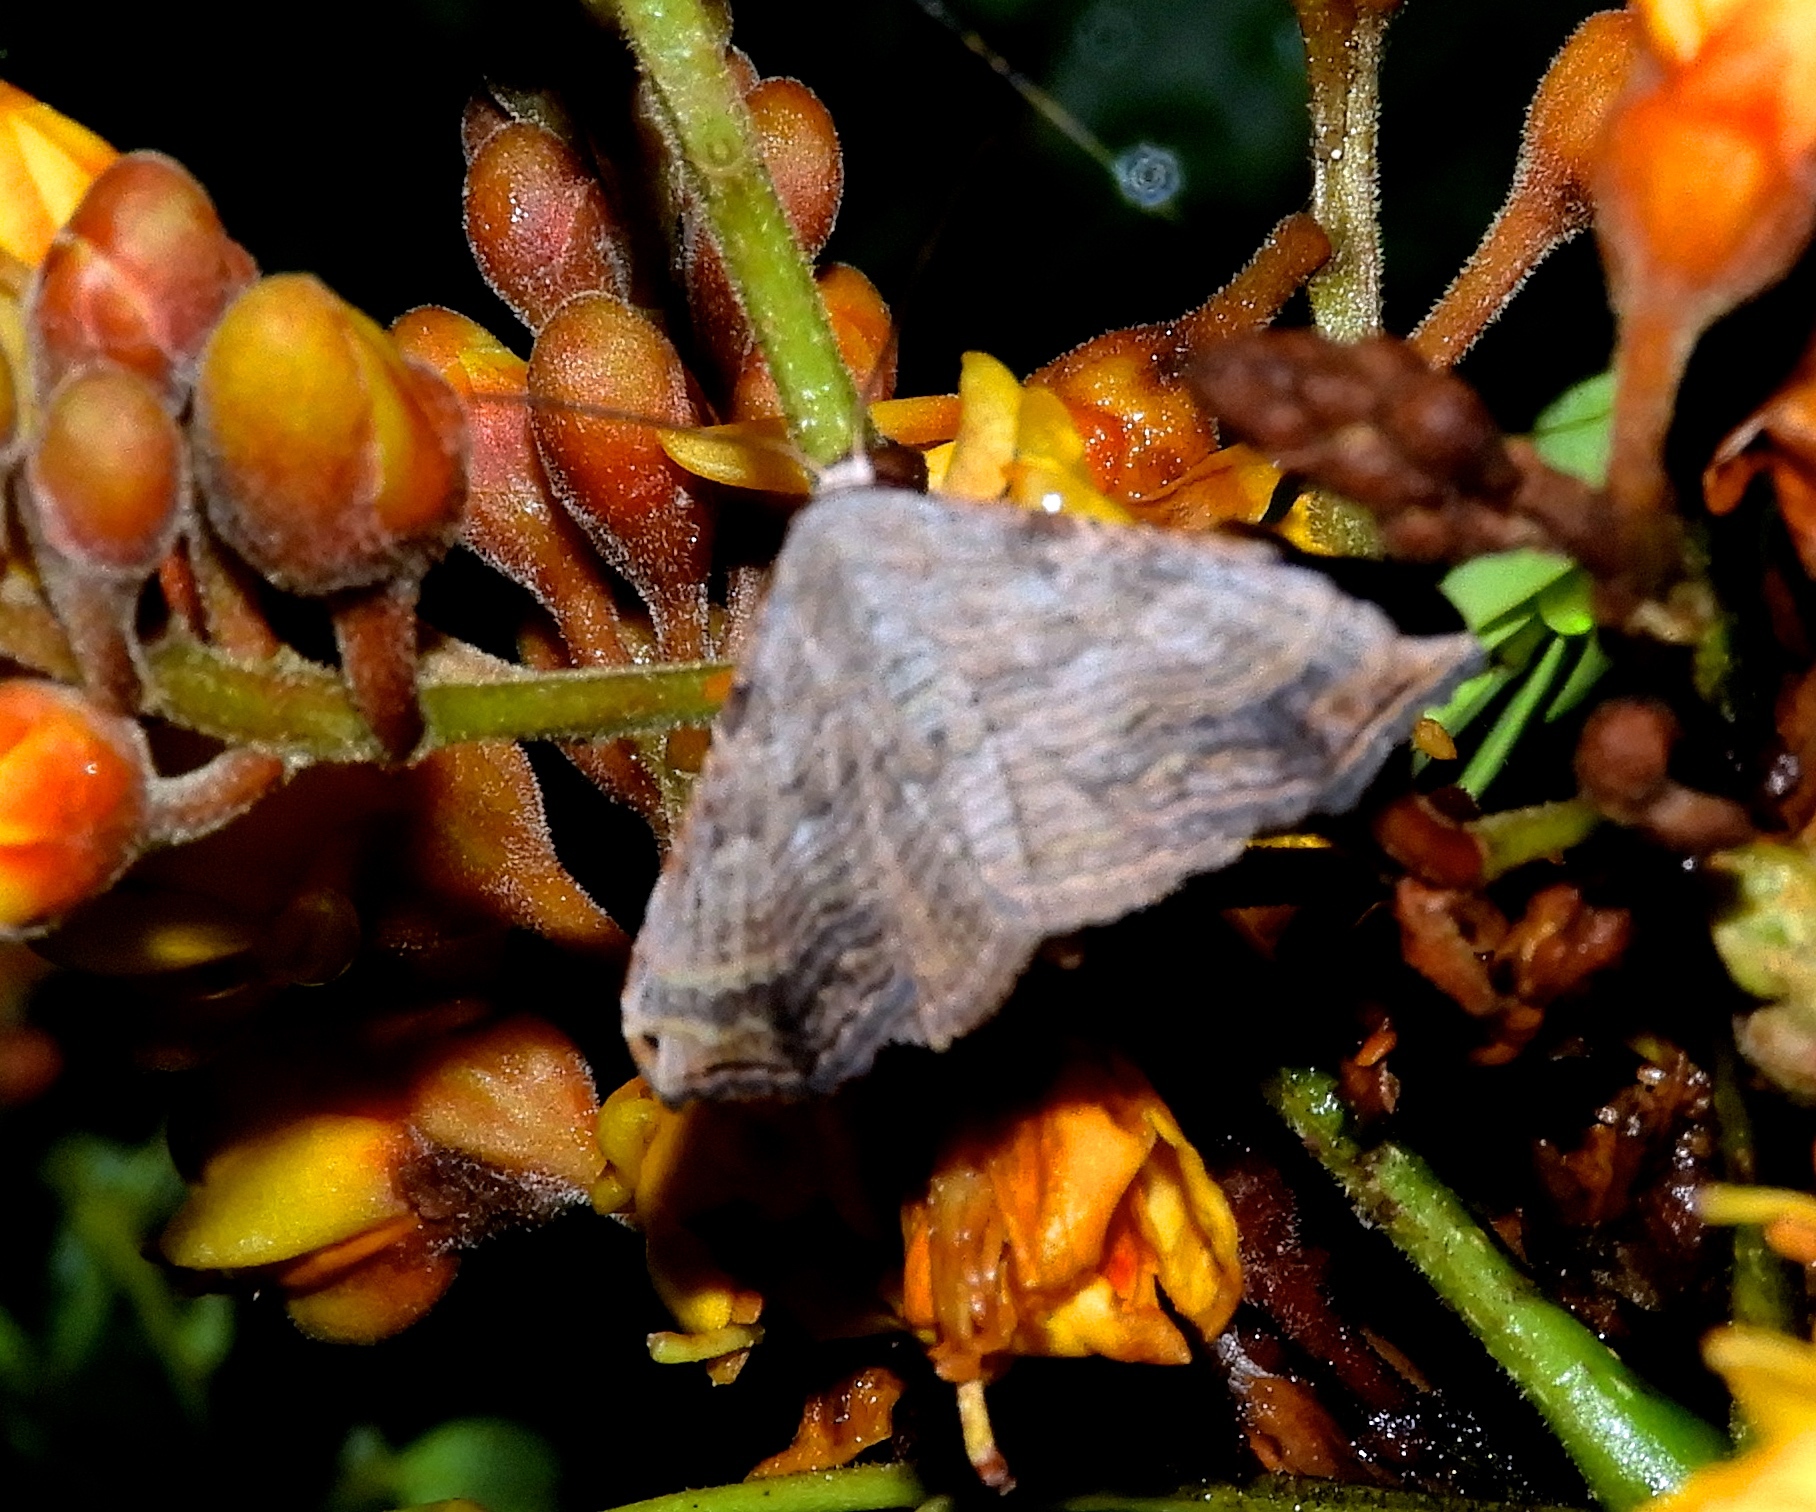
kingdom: Animalia
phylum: Arthropoda
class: Insecta
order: Lepidoptera
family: Erebidae
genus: Tyrissa
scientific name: Tyrissa multilinea
